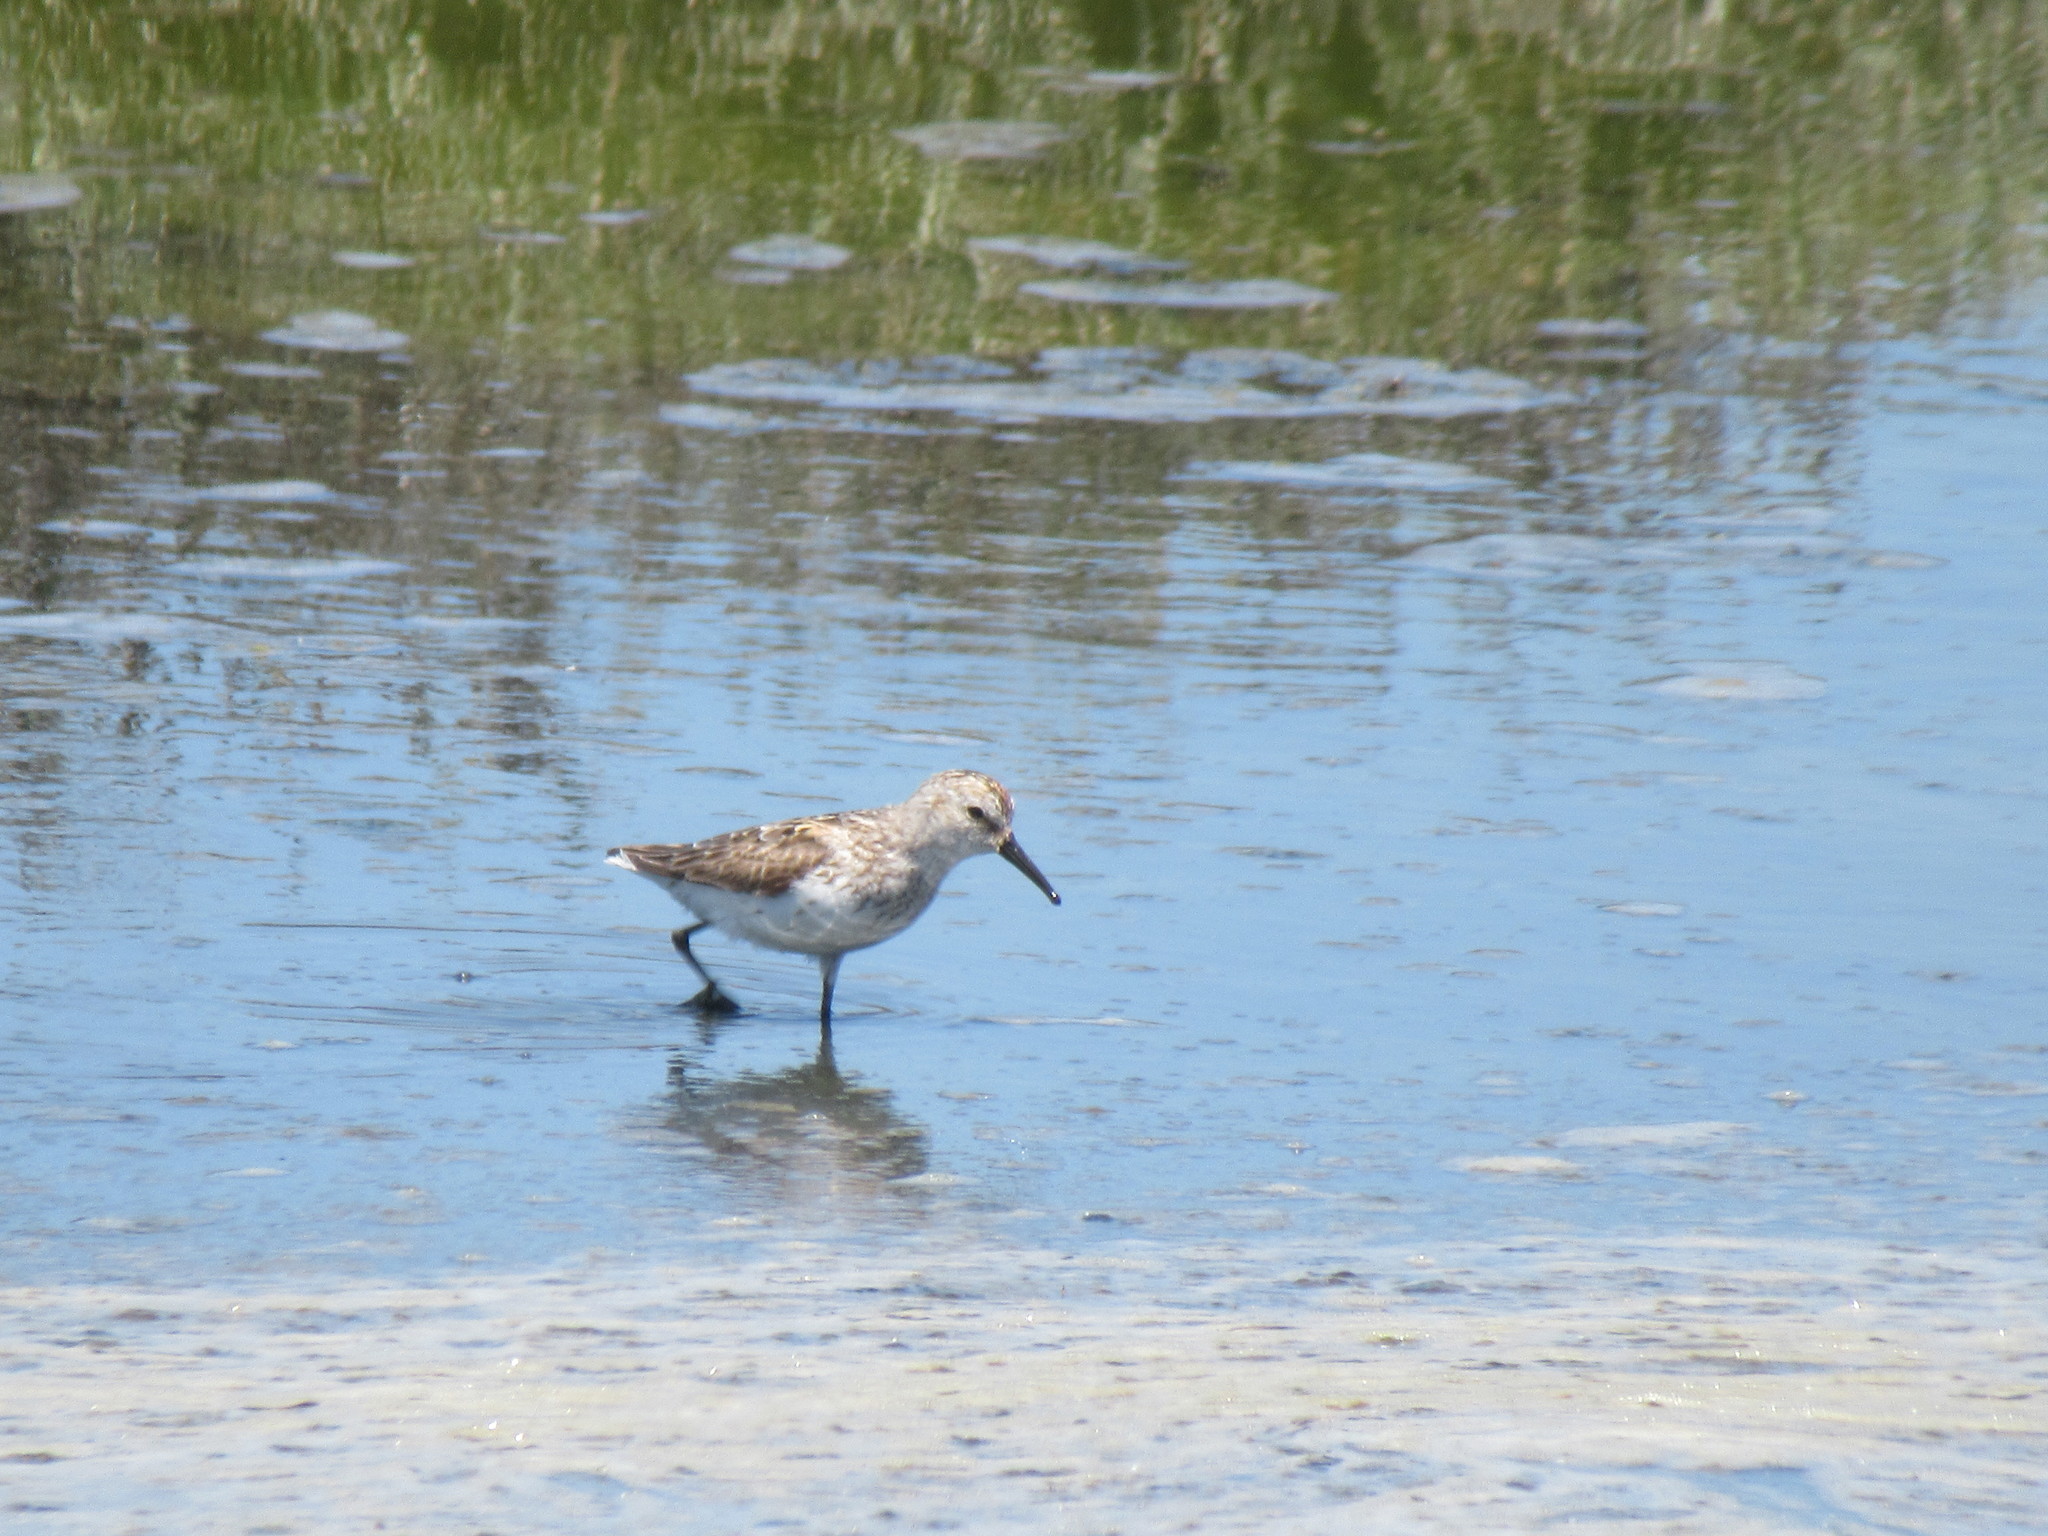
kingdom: Animalia
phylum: Chordata
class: Aves
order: Charadriiformes
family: Scolopacidae
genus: Calidris
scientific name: Calidris mauri
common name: Western sandpiper
